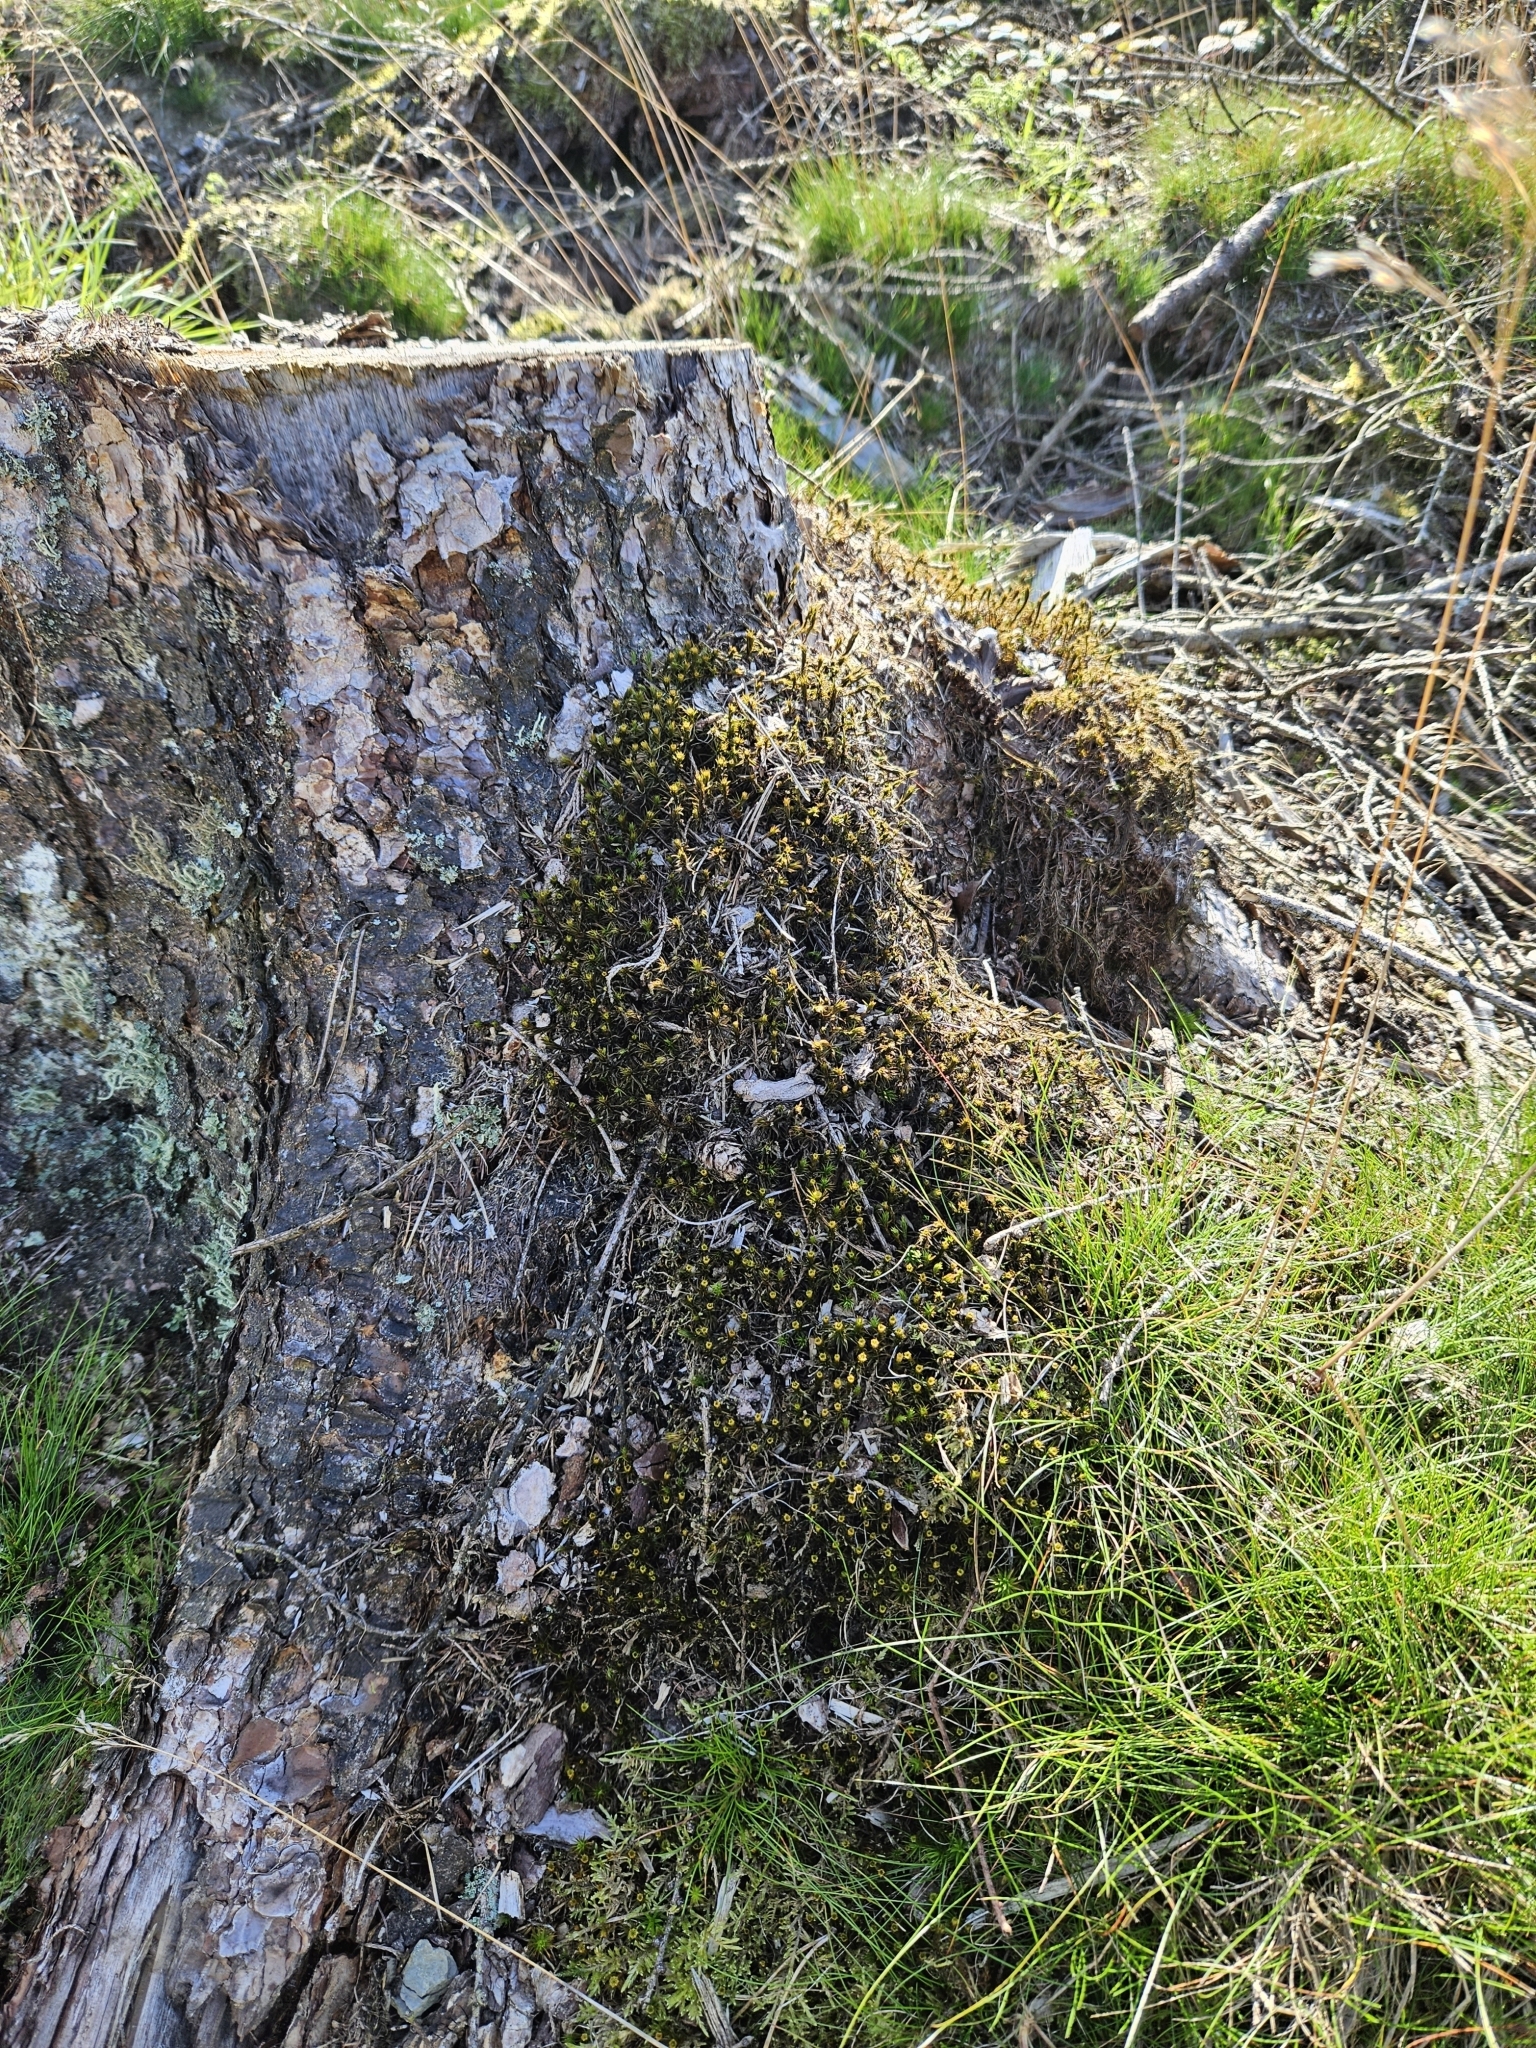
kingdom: Plantae
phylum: Bryophyta
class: Polytrichopsida
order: Polytrichales
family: Polytrichaceae
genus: Polytrichum
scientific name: Polytrichum formosum
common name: Bank haircap moss
